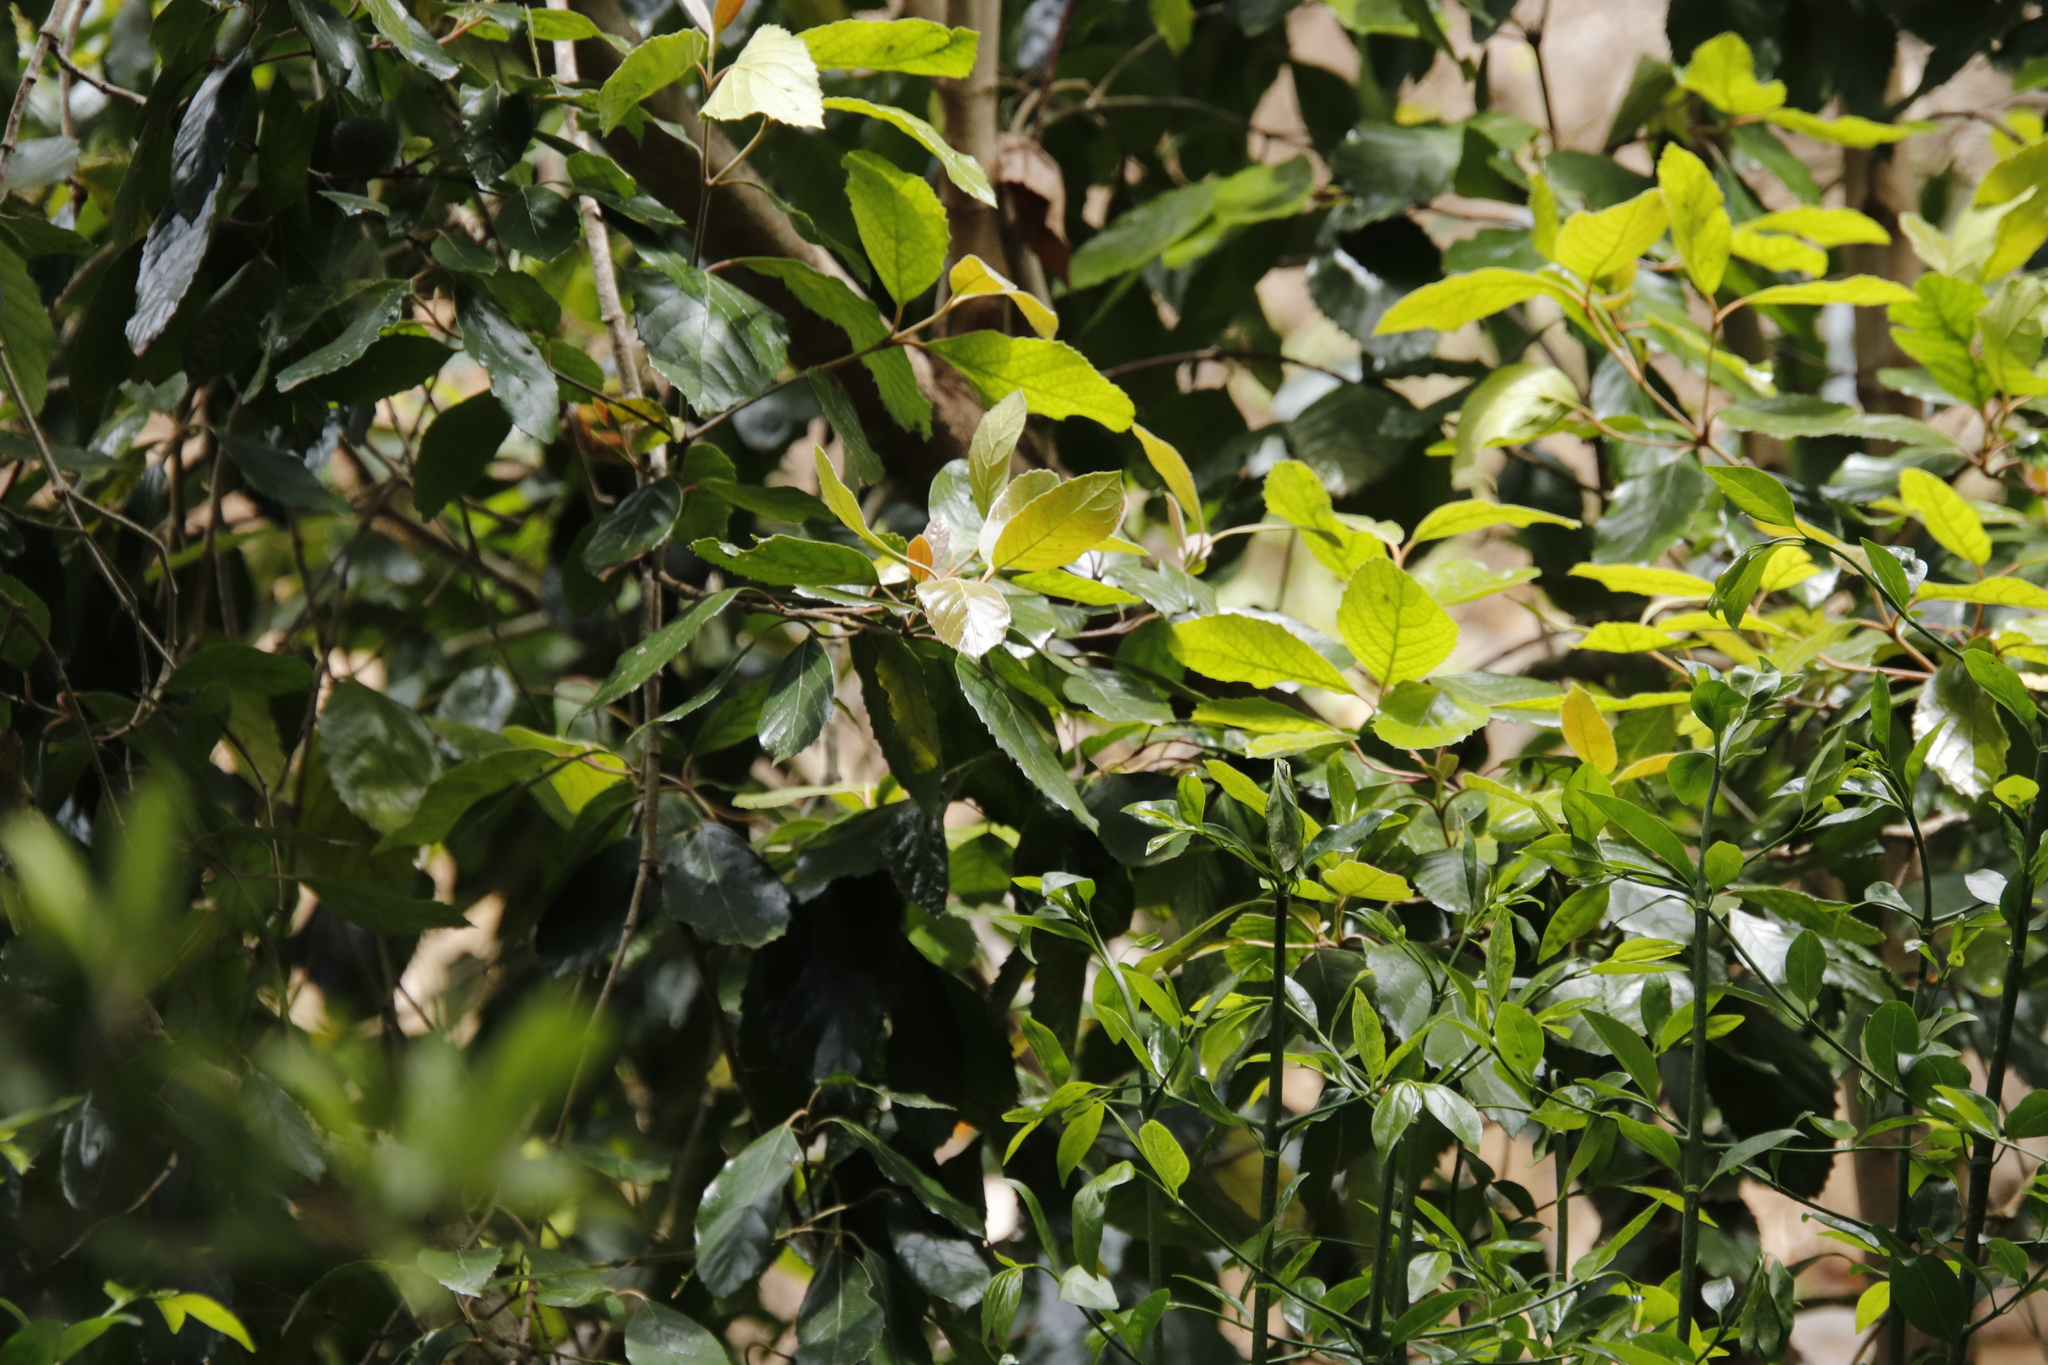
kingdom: Plantae
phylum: Tracheophyta
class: Magnoliopsida
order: Cornales
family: Curtisiaceae
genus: Curtisia
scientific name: Curtisia dentata
